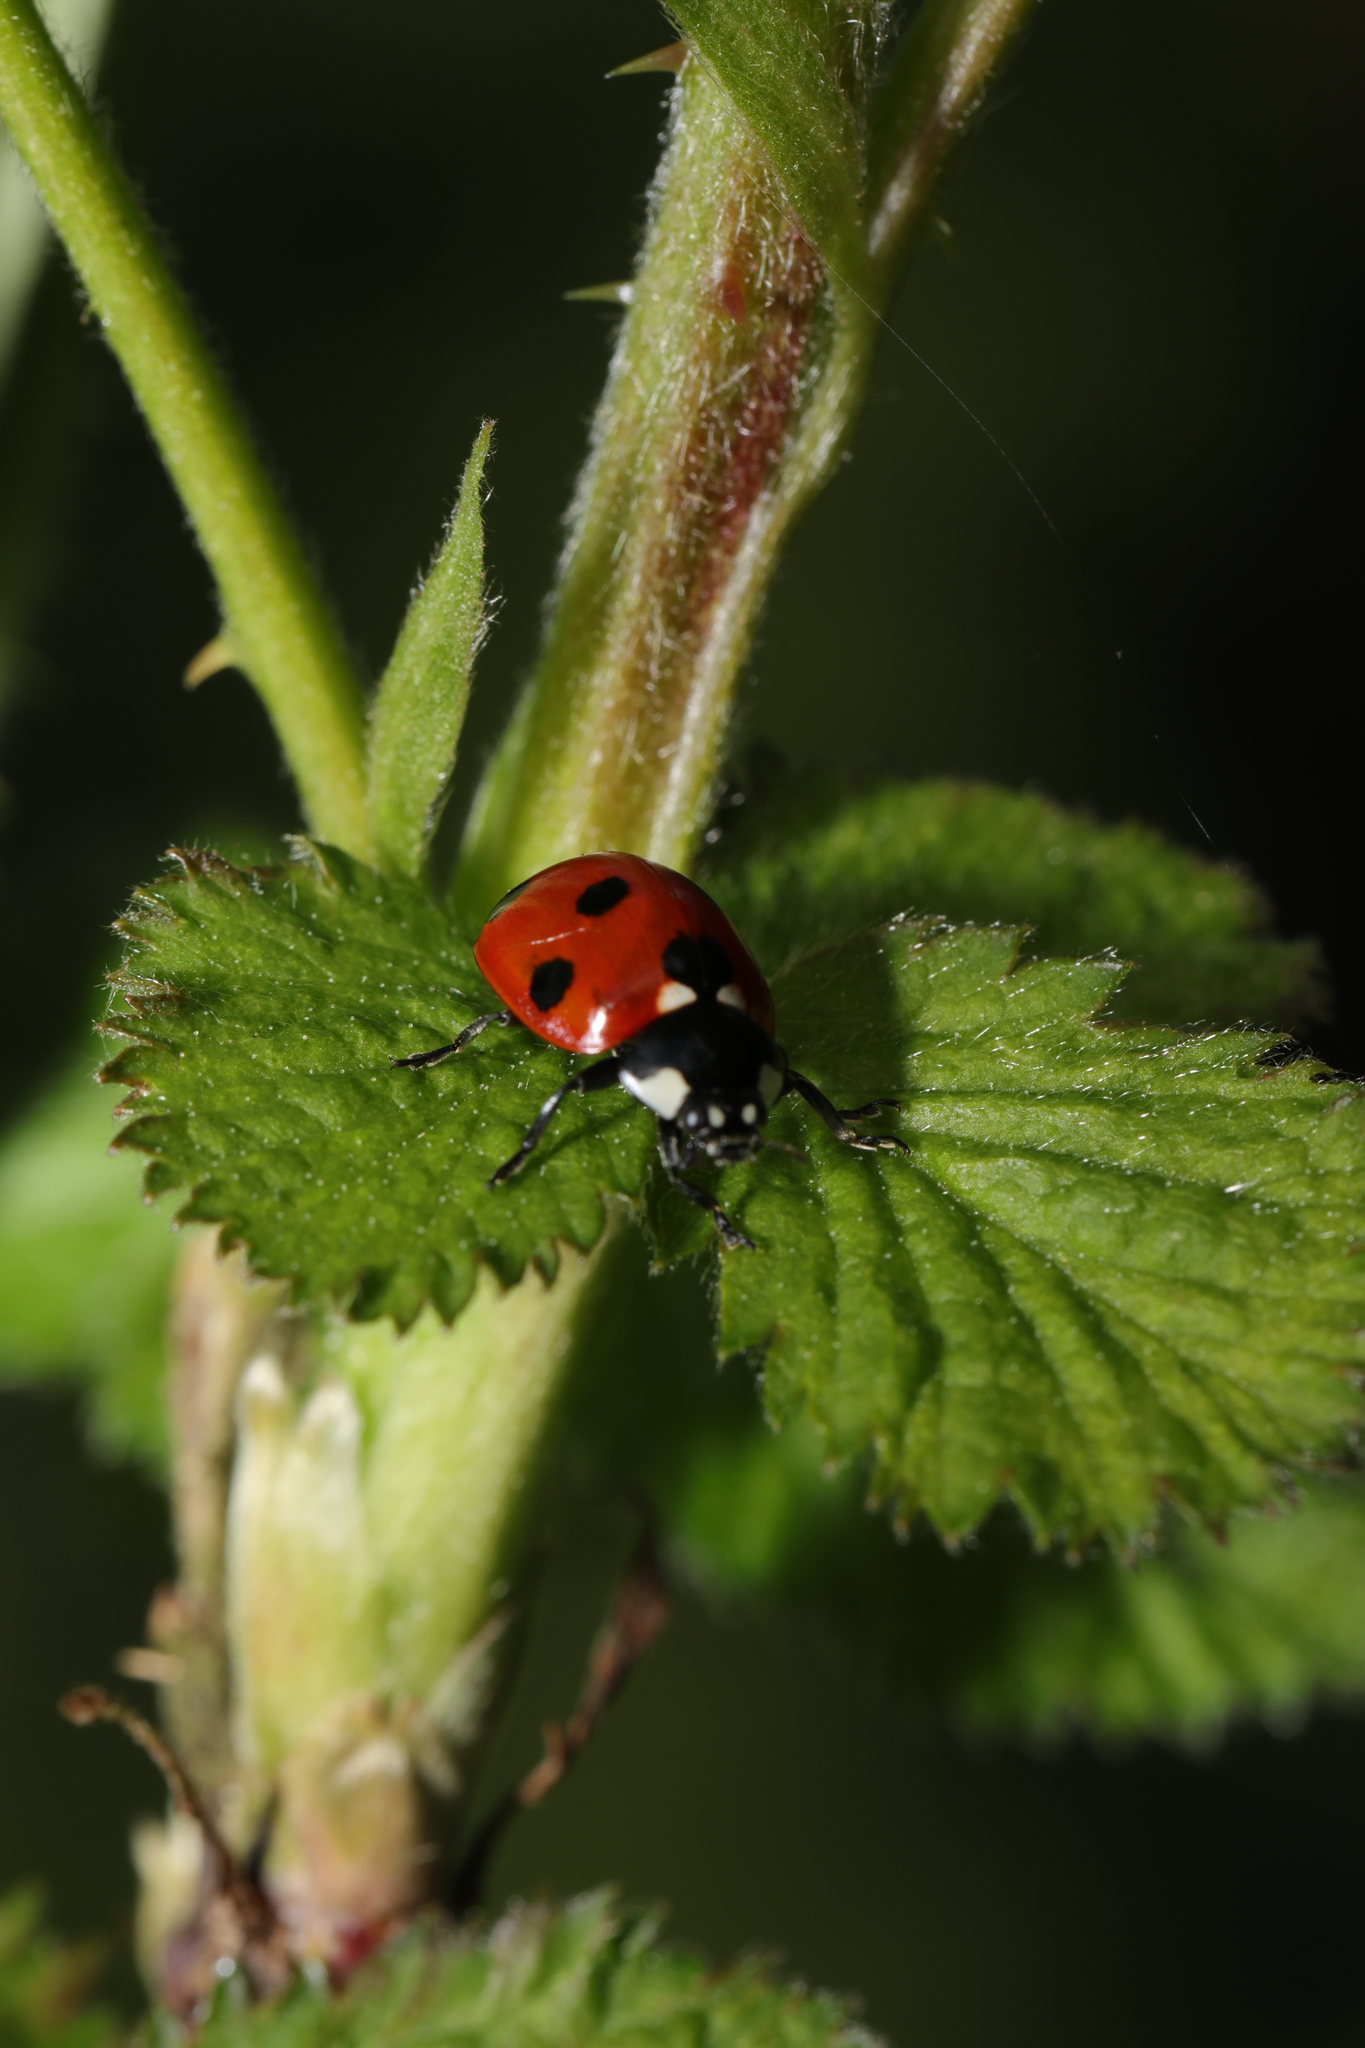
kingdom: Animalia
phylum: Arthropoda
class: Insecta
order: Coleoptera
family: Coccinellidae
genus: Coccinella
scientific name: Coccinella septempunctata
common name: Sevenspotted lady beetle
